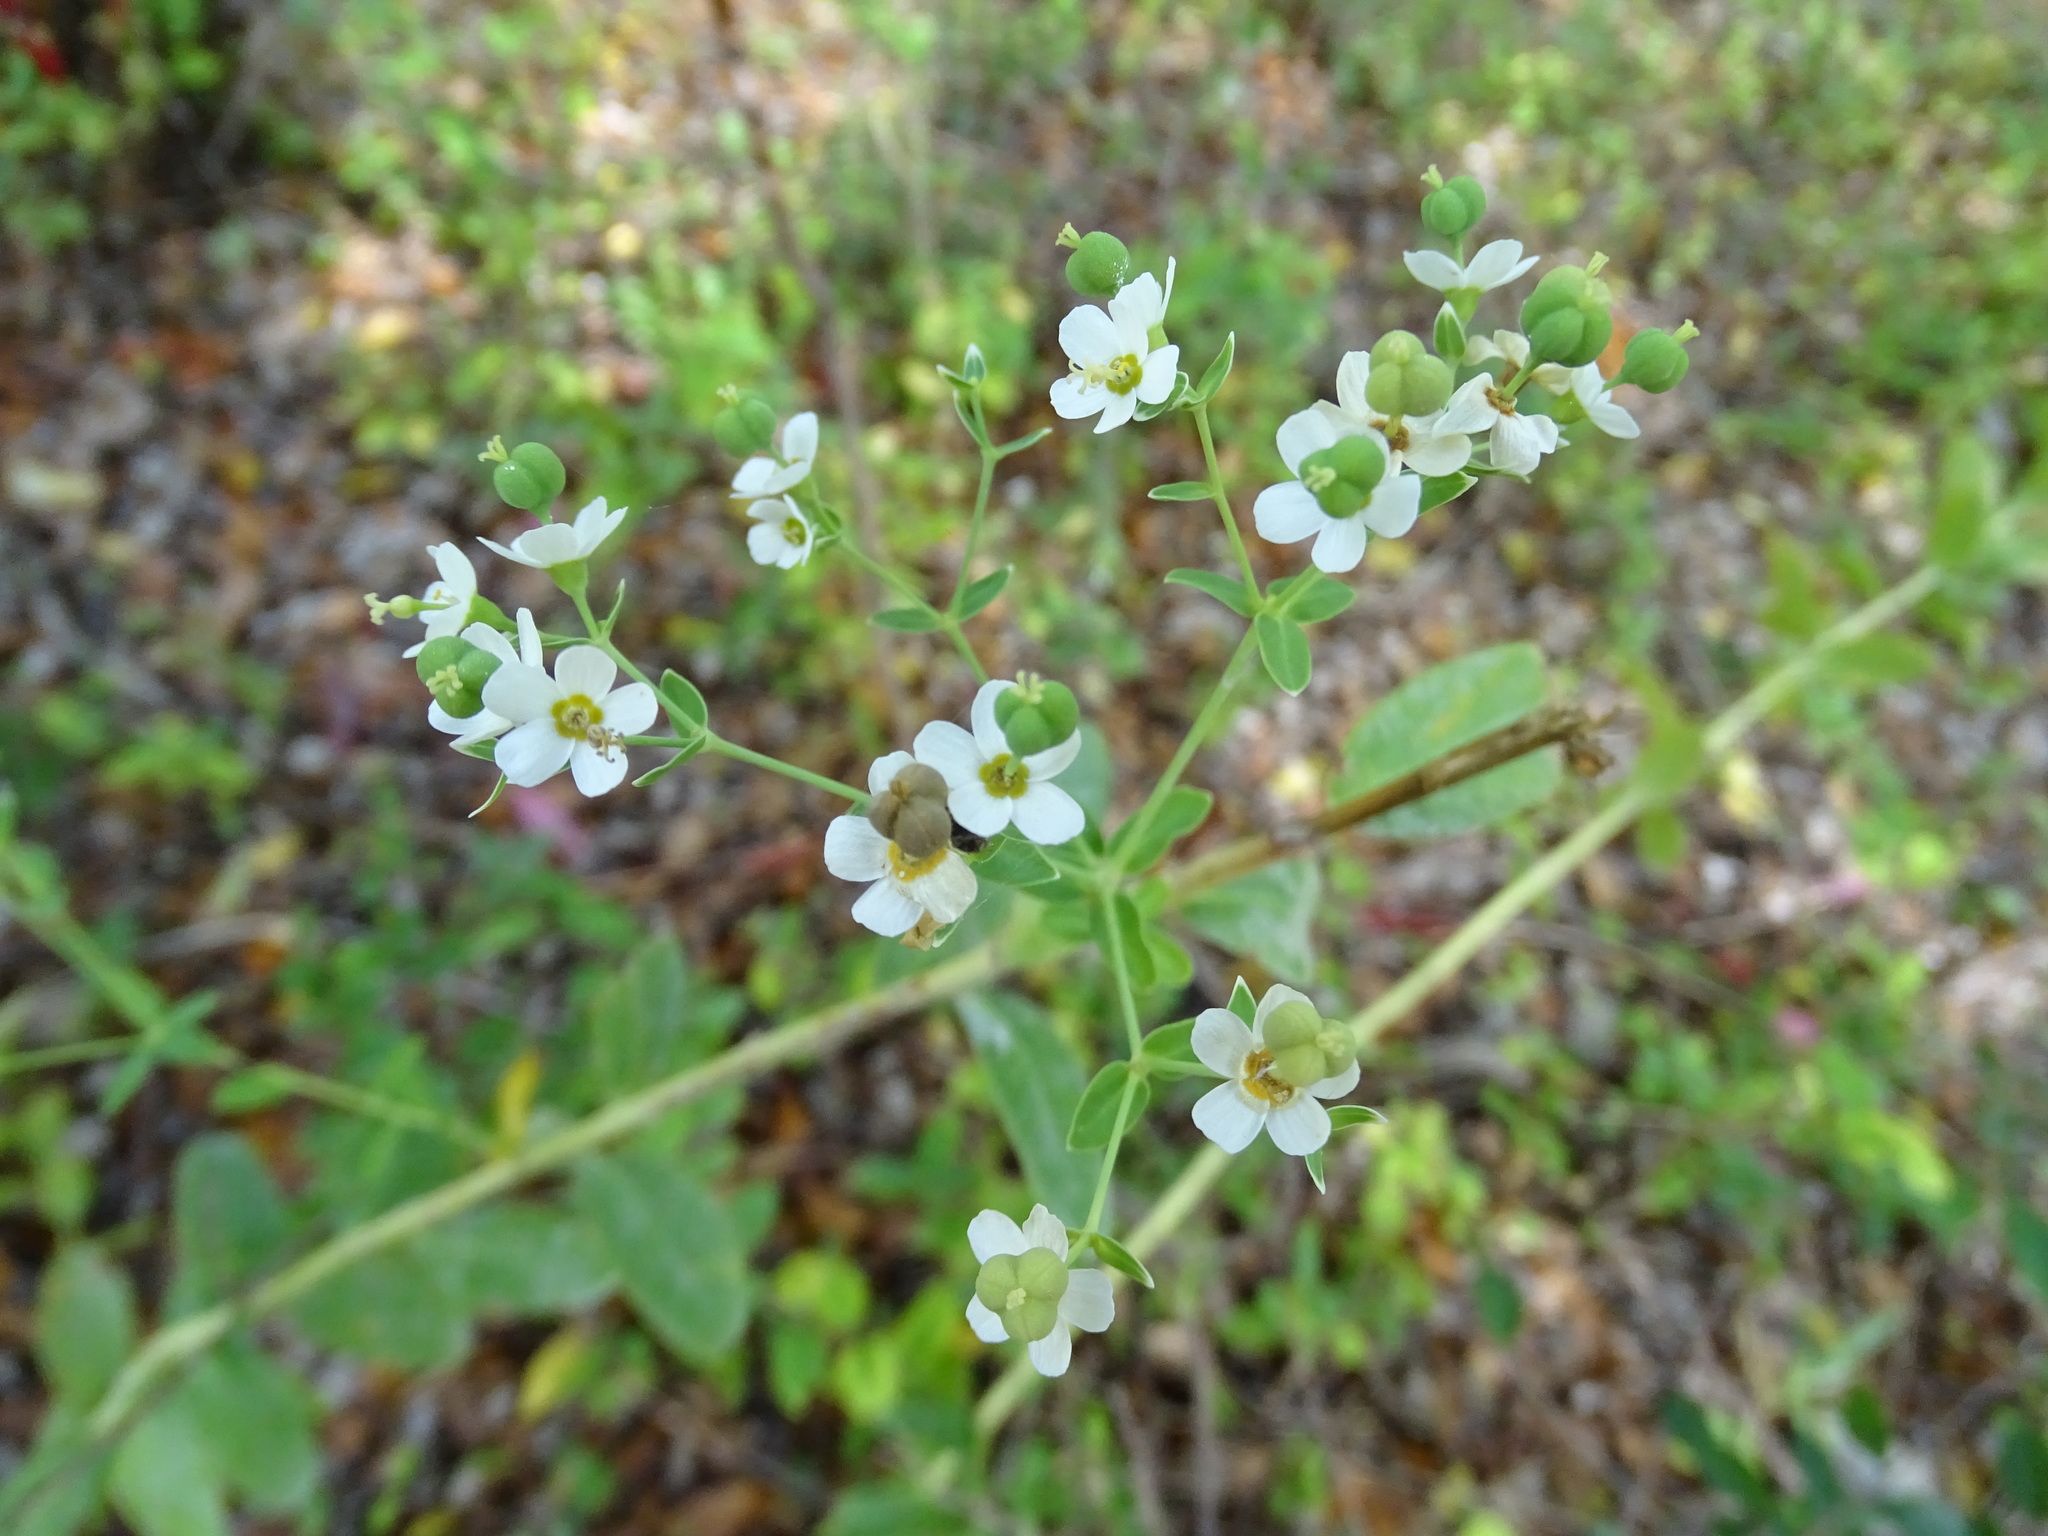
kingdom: Plantae
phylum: Tracheophyta
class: Magnoliopsida
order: Malpighiales
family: Euphorbiaceae
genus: Euphorbia
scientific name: Euphorbia corollata
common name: Flowering spurge
